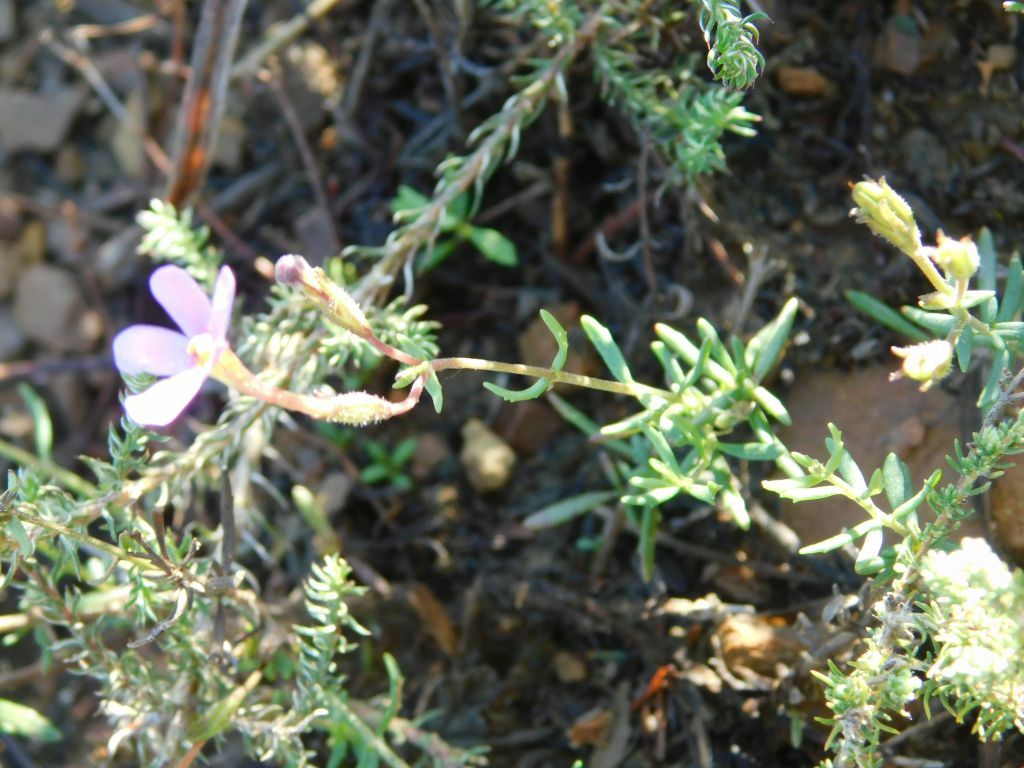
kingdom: Plantae
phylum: Tracheophyta
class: Magnoliopsida
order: Lamiales
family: Scrophulariaceae
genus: Chaenostoma
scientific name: Chaenostoma revolutum
